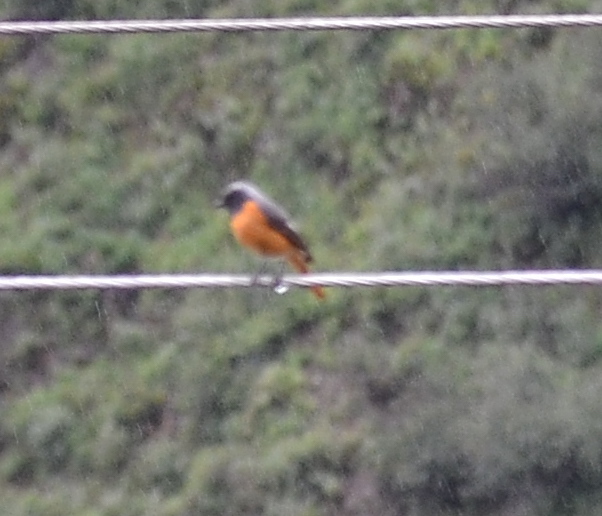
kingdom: Animalia
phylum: Chordata
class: Aves
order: Passeriformes
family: Muscicapidae
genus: Phoenicurus
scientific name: Phoenicurus hodgsoni
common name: Hodgson's redstart
